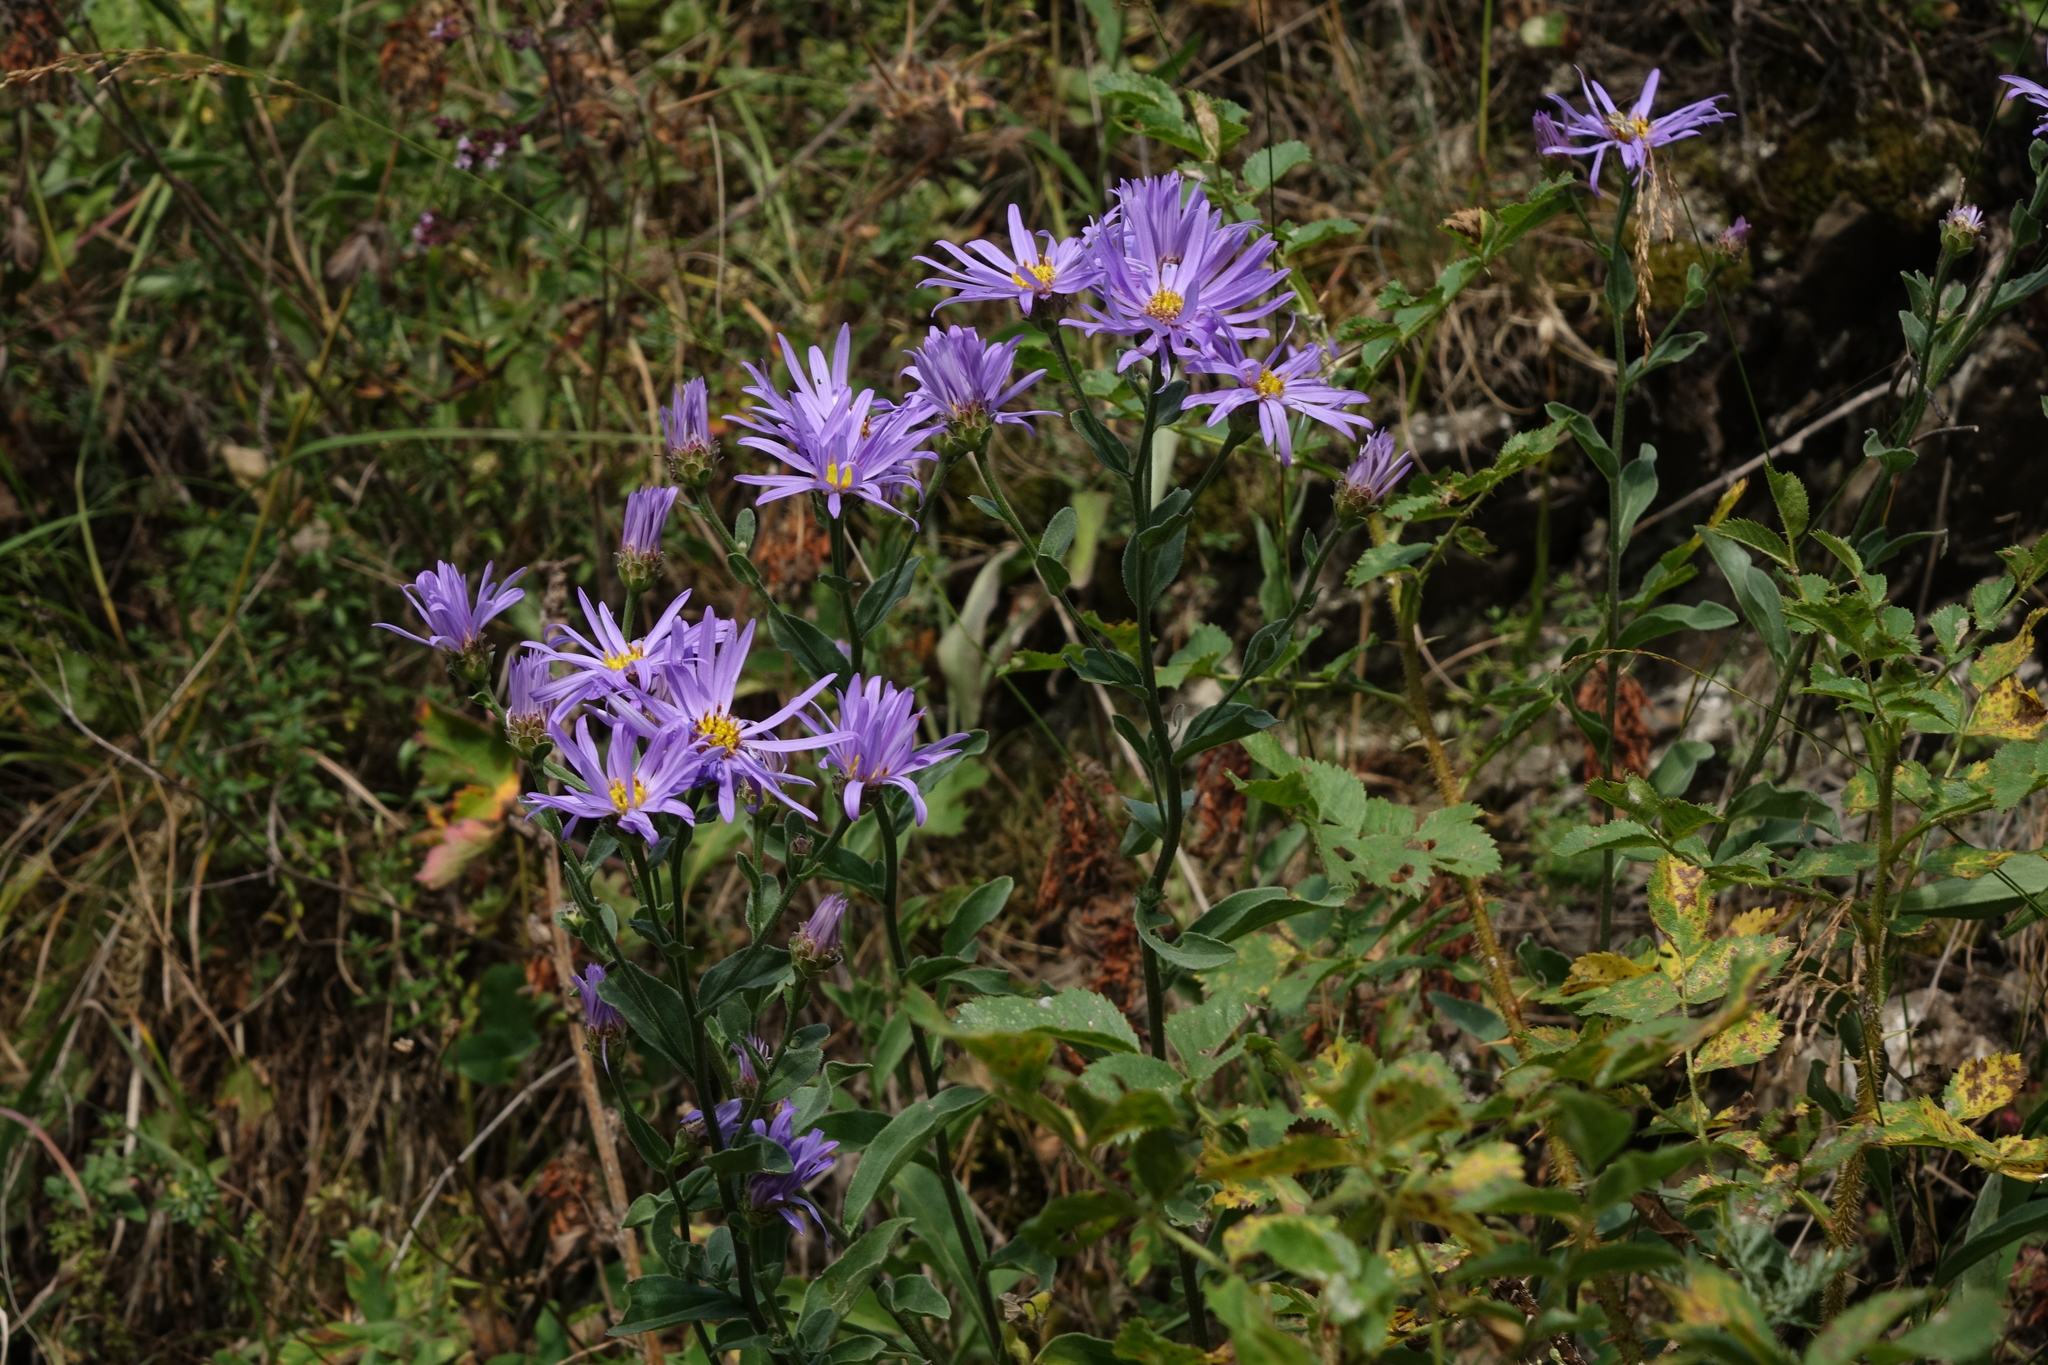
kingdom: Plantae
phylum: Tracheophyta
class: Magnoliopsida
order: Asterales
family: Asteraceae
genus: Aster
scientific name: Aster amellus
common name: European michaelmas daisy
